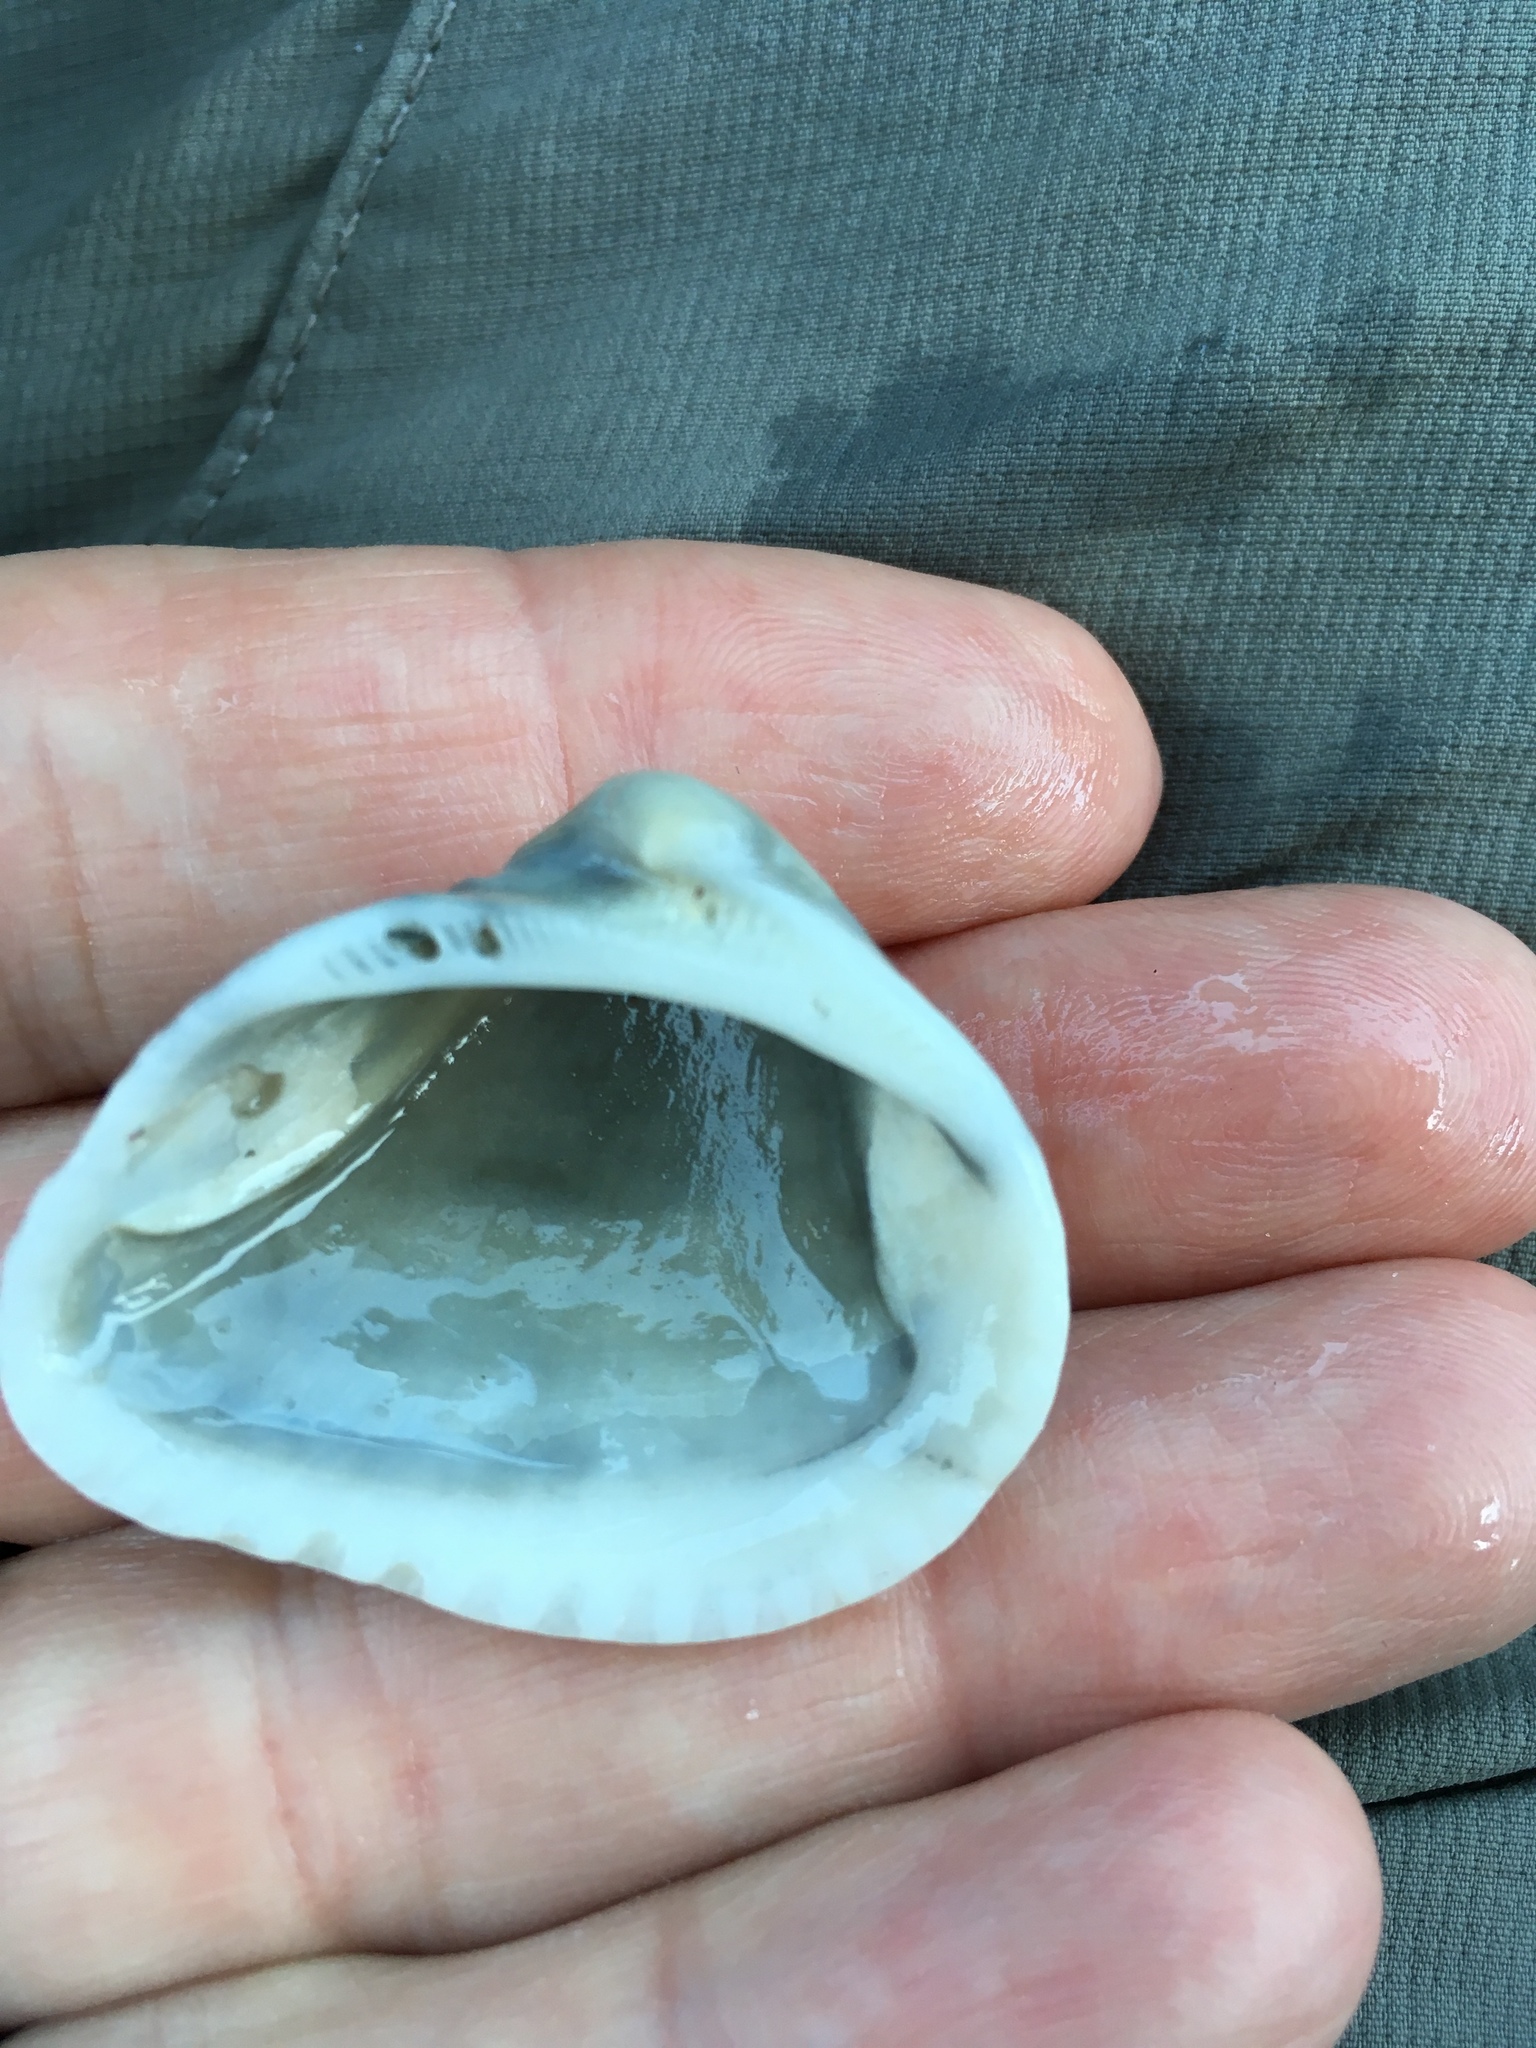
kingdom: Animalia
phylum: Mollusca
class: Bivalvia
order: Arcida
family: Noetiidae
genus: Noetia
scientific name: Noetia ponderosa
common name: Ponderous ark
